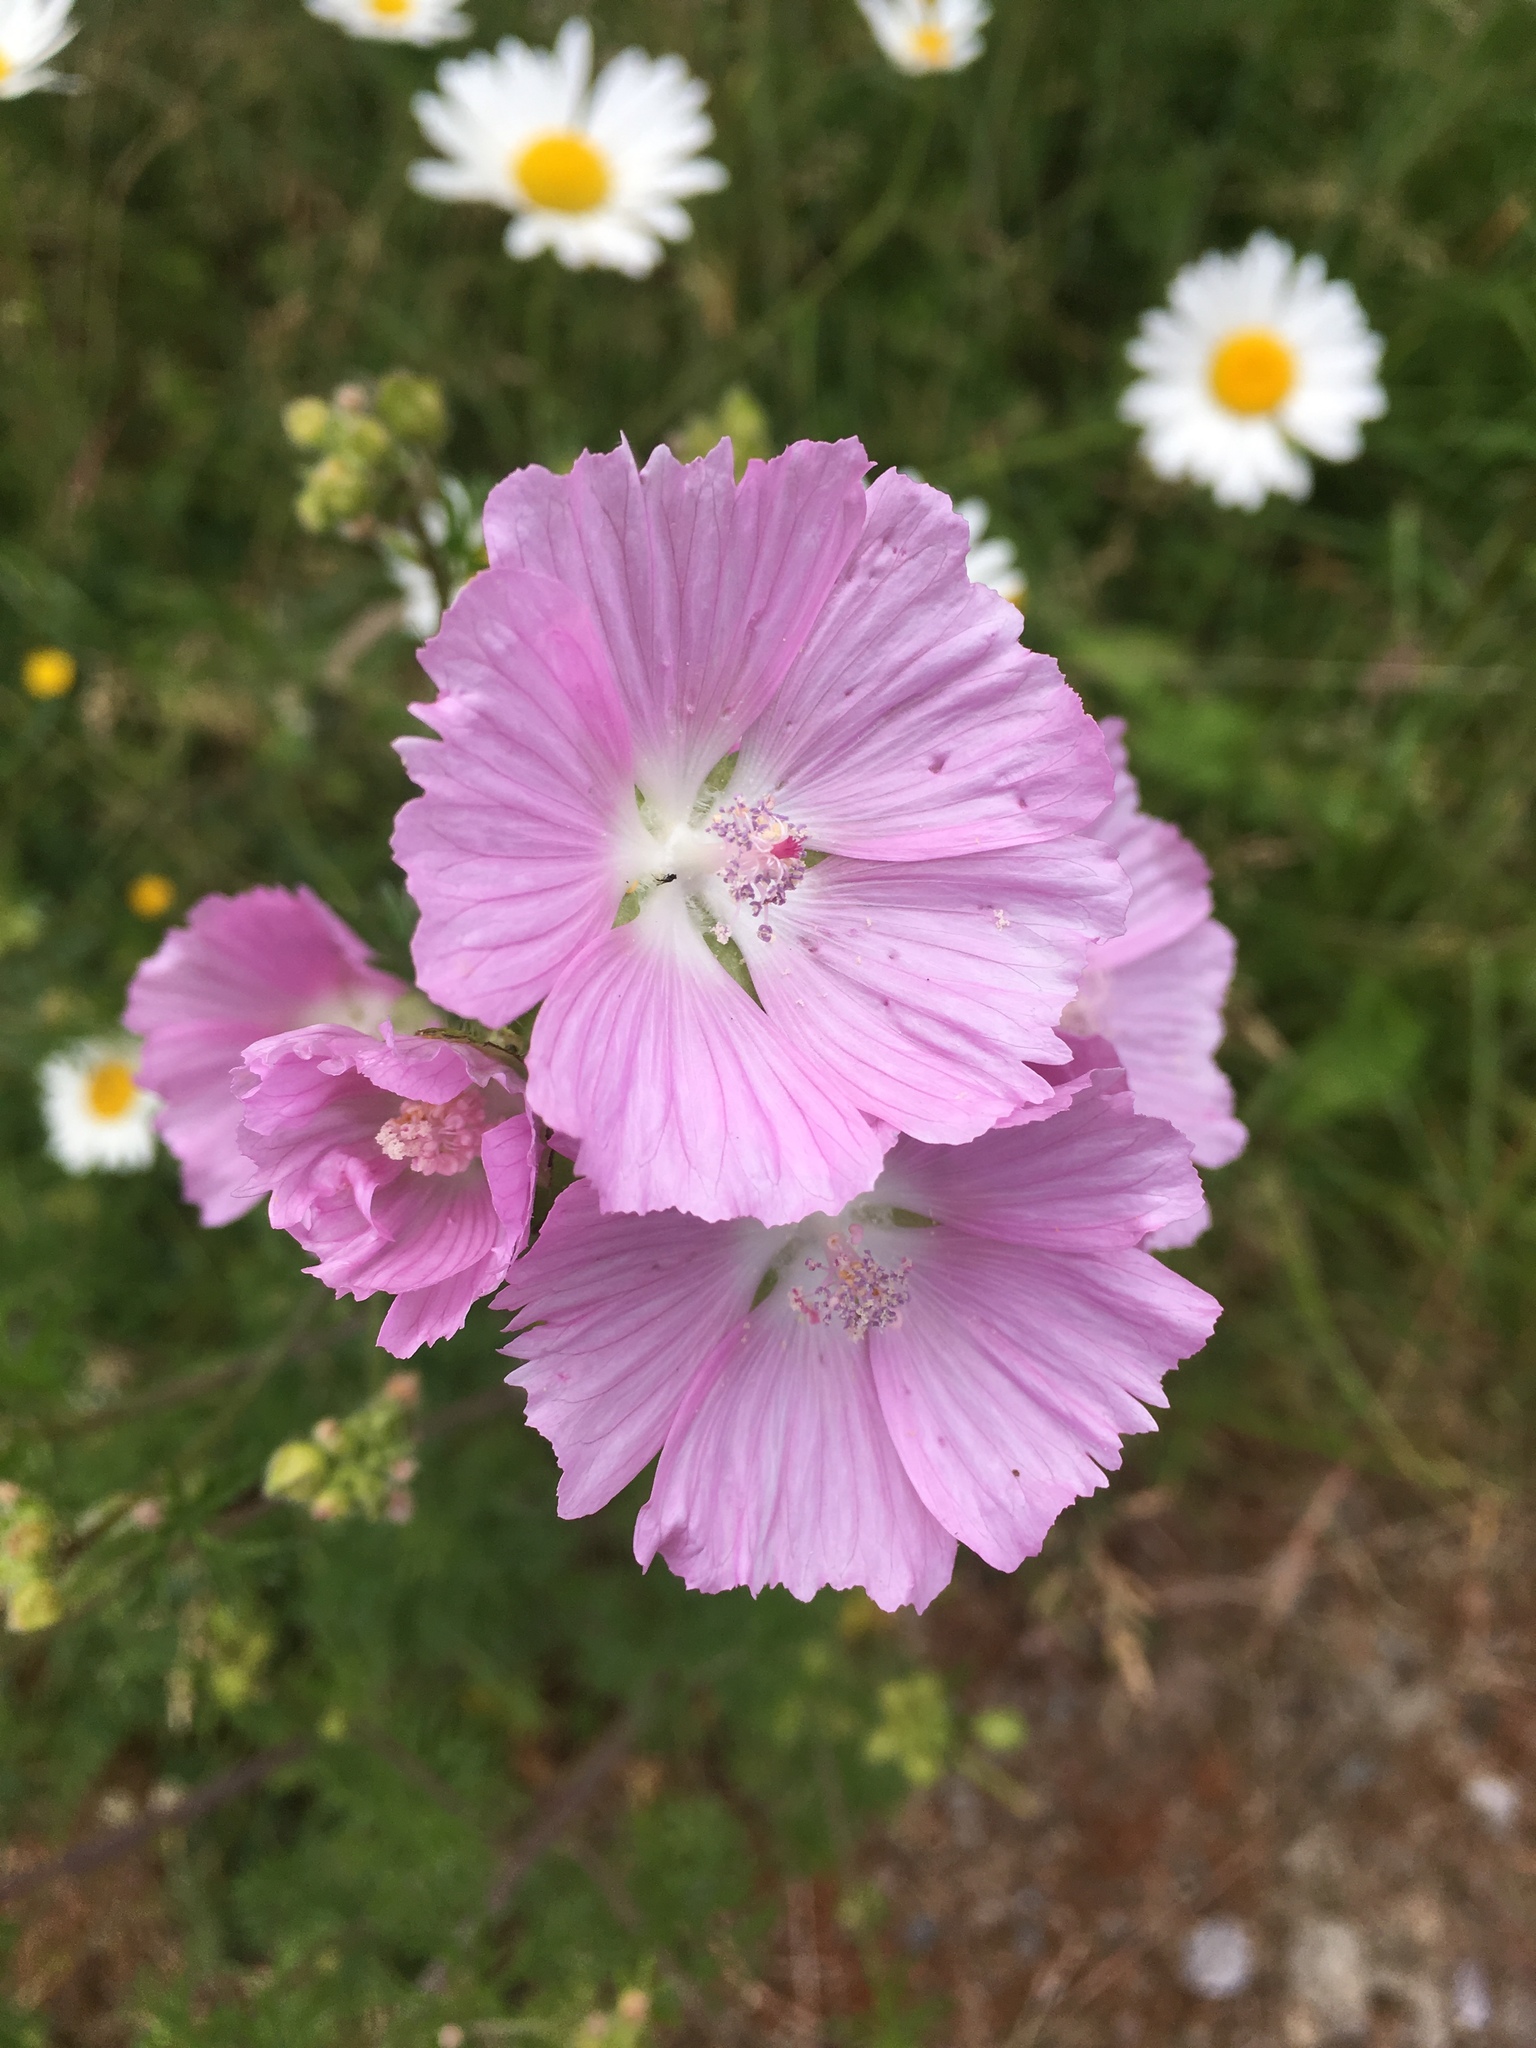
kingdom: Plantae
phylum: Tracheophyta
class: Magnoliopsida
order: Malvales
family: Malvaceae
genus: Malva
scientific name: Malva moschata
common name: Musk mallow
